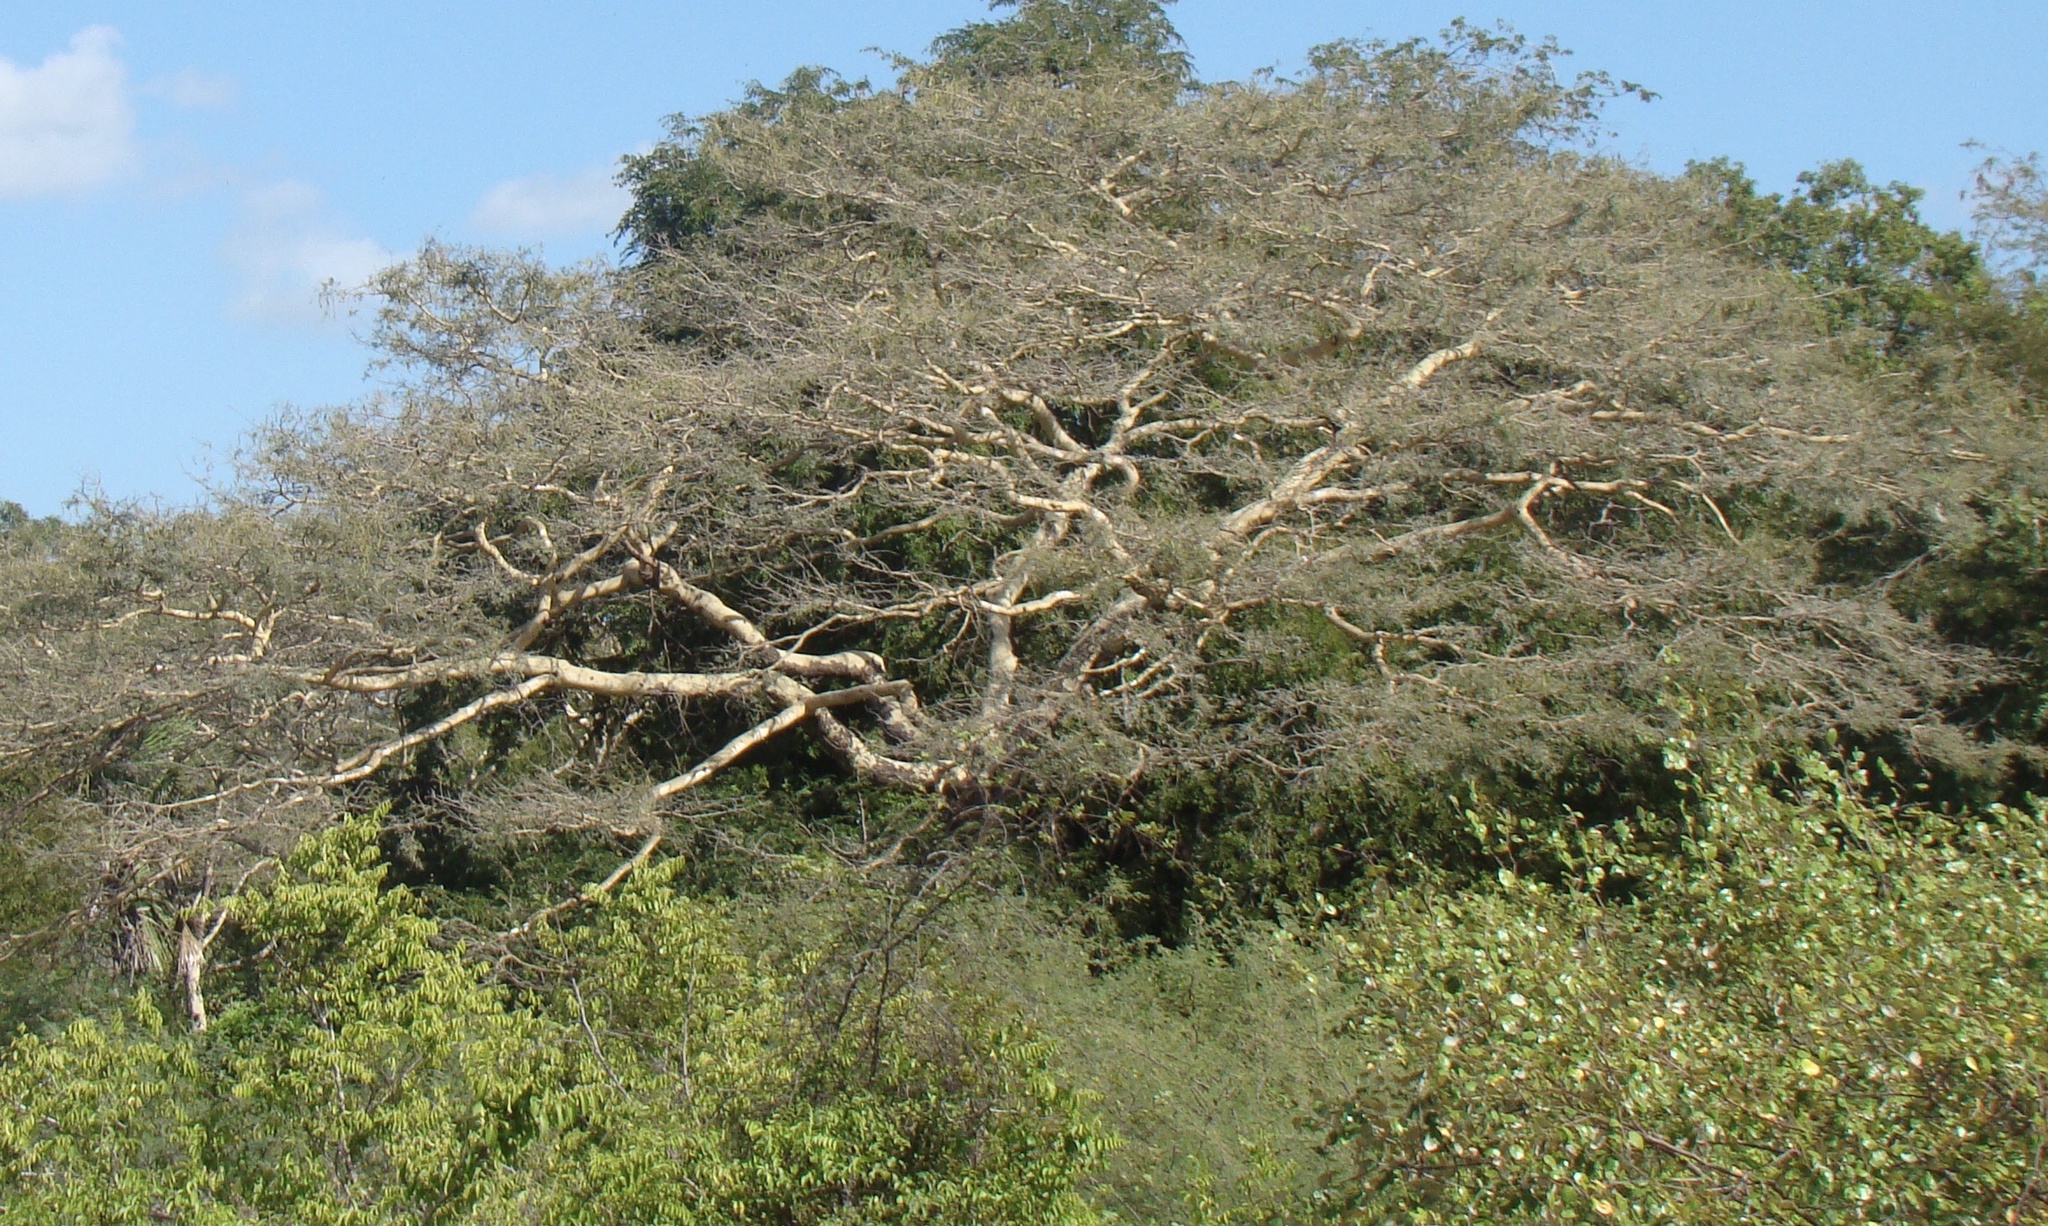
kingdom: Plantae
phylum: Tracheophyta
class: Magnoliopsida
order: Fabales
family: Fabaceae
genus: Vachellia
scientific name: Vachellia leucophloea
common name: Distiller's acacia
